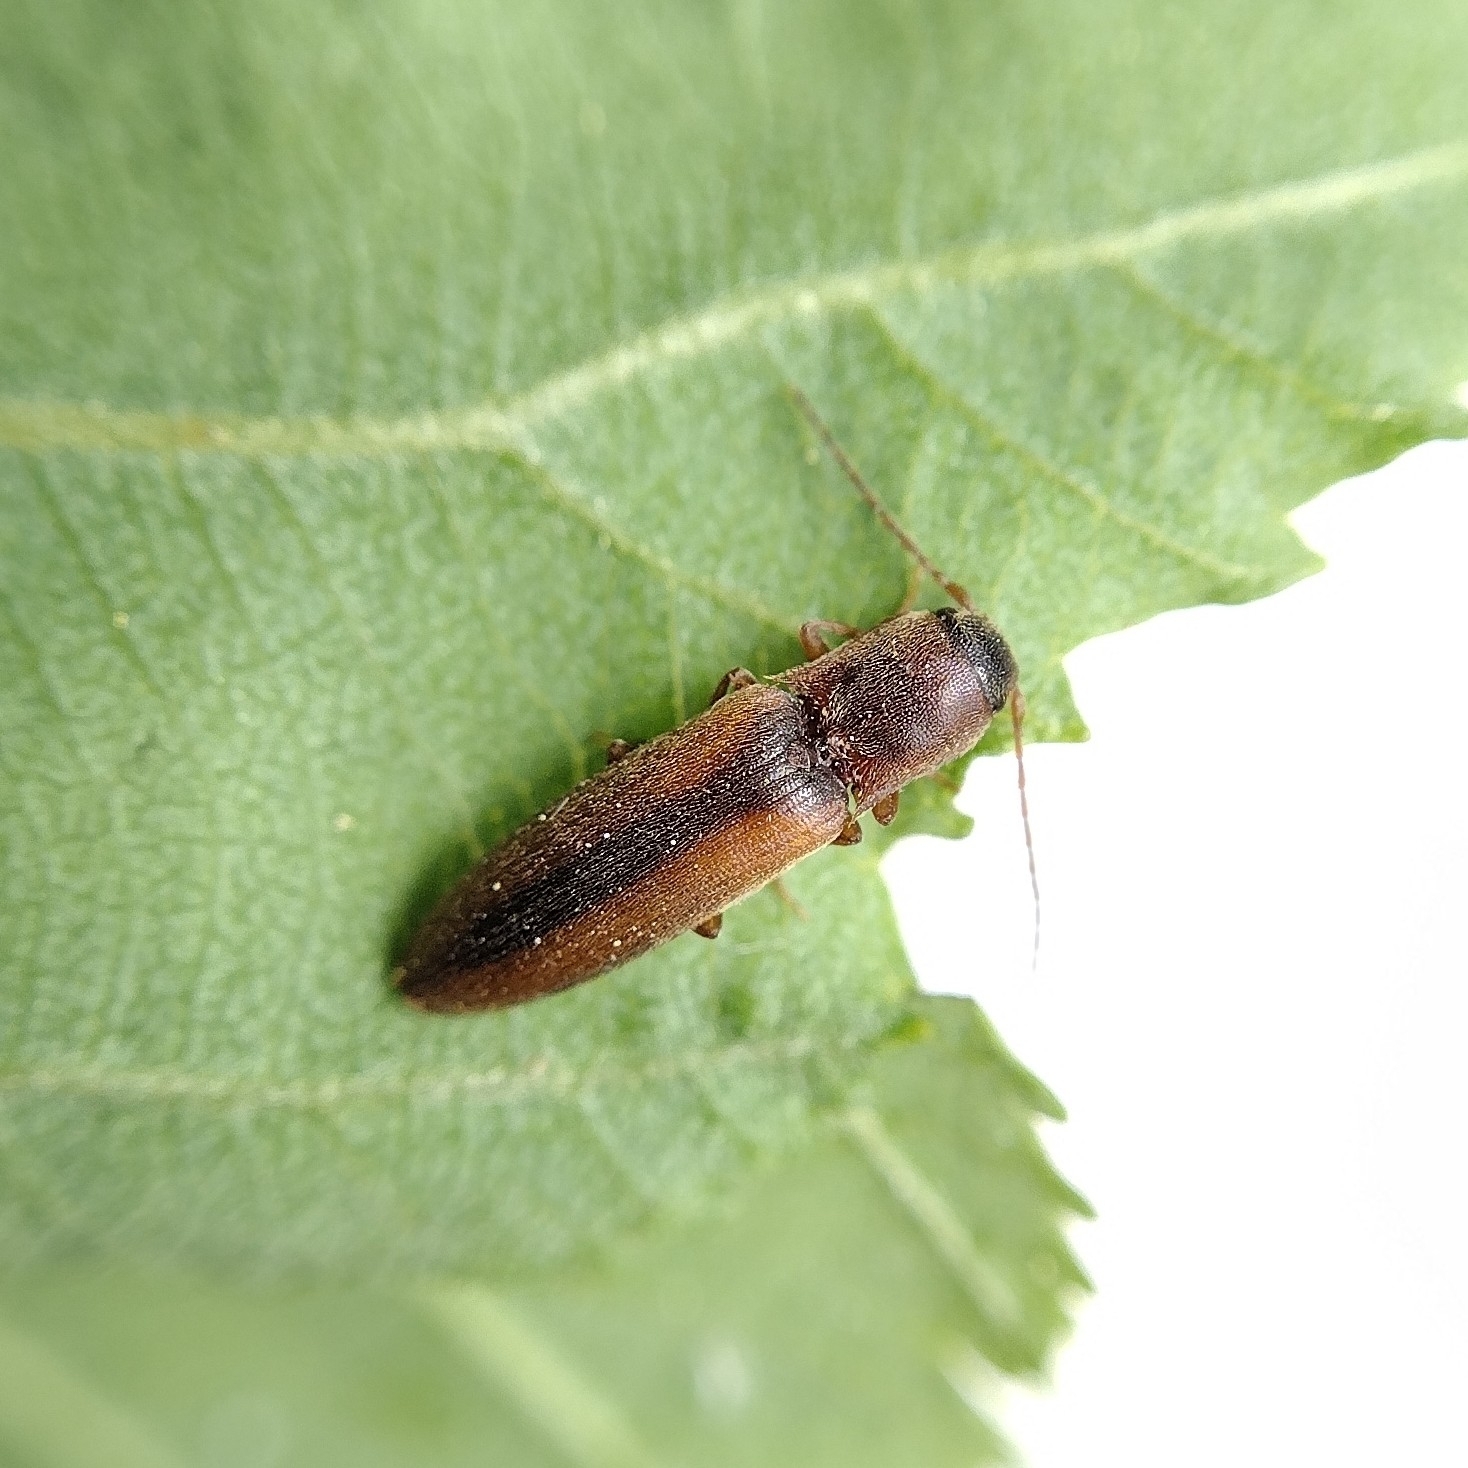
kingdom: Animalia
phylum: Arthropoda
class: Insecta
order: Coleoptera
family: Elateridae
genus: Dalopius
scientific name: Dalopius marginatus
